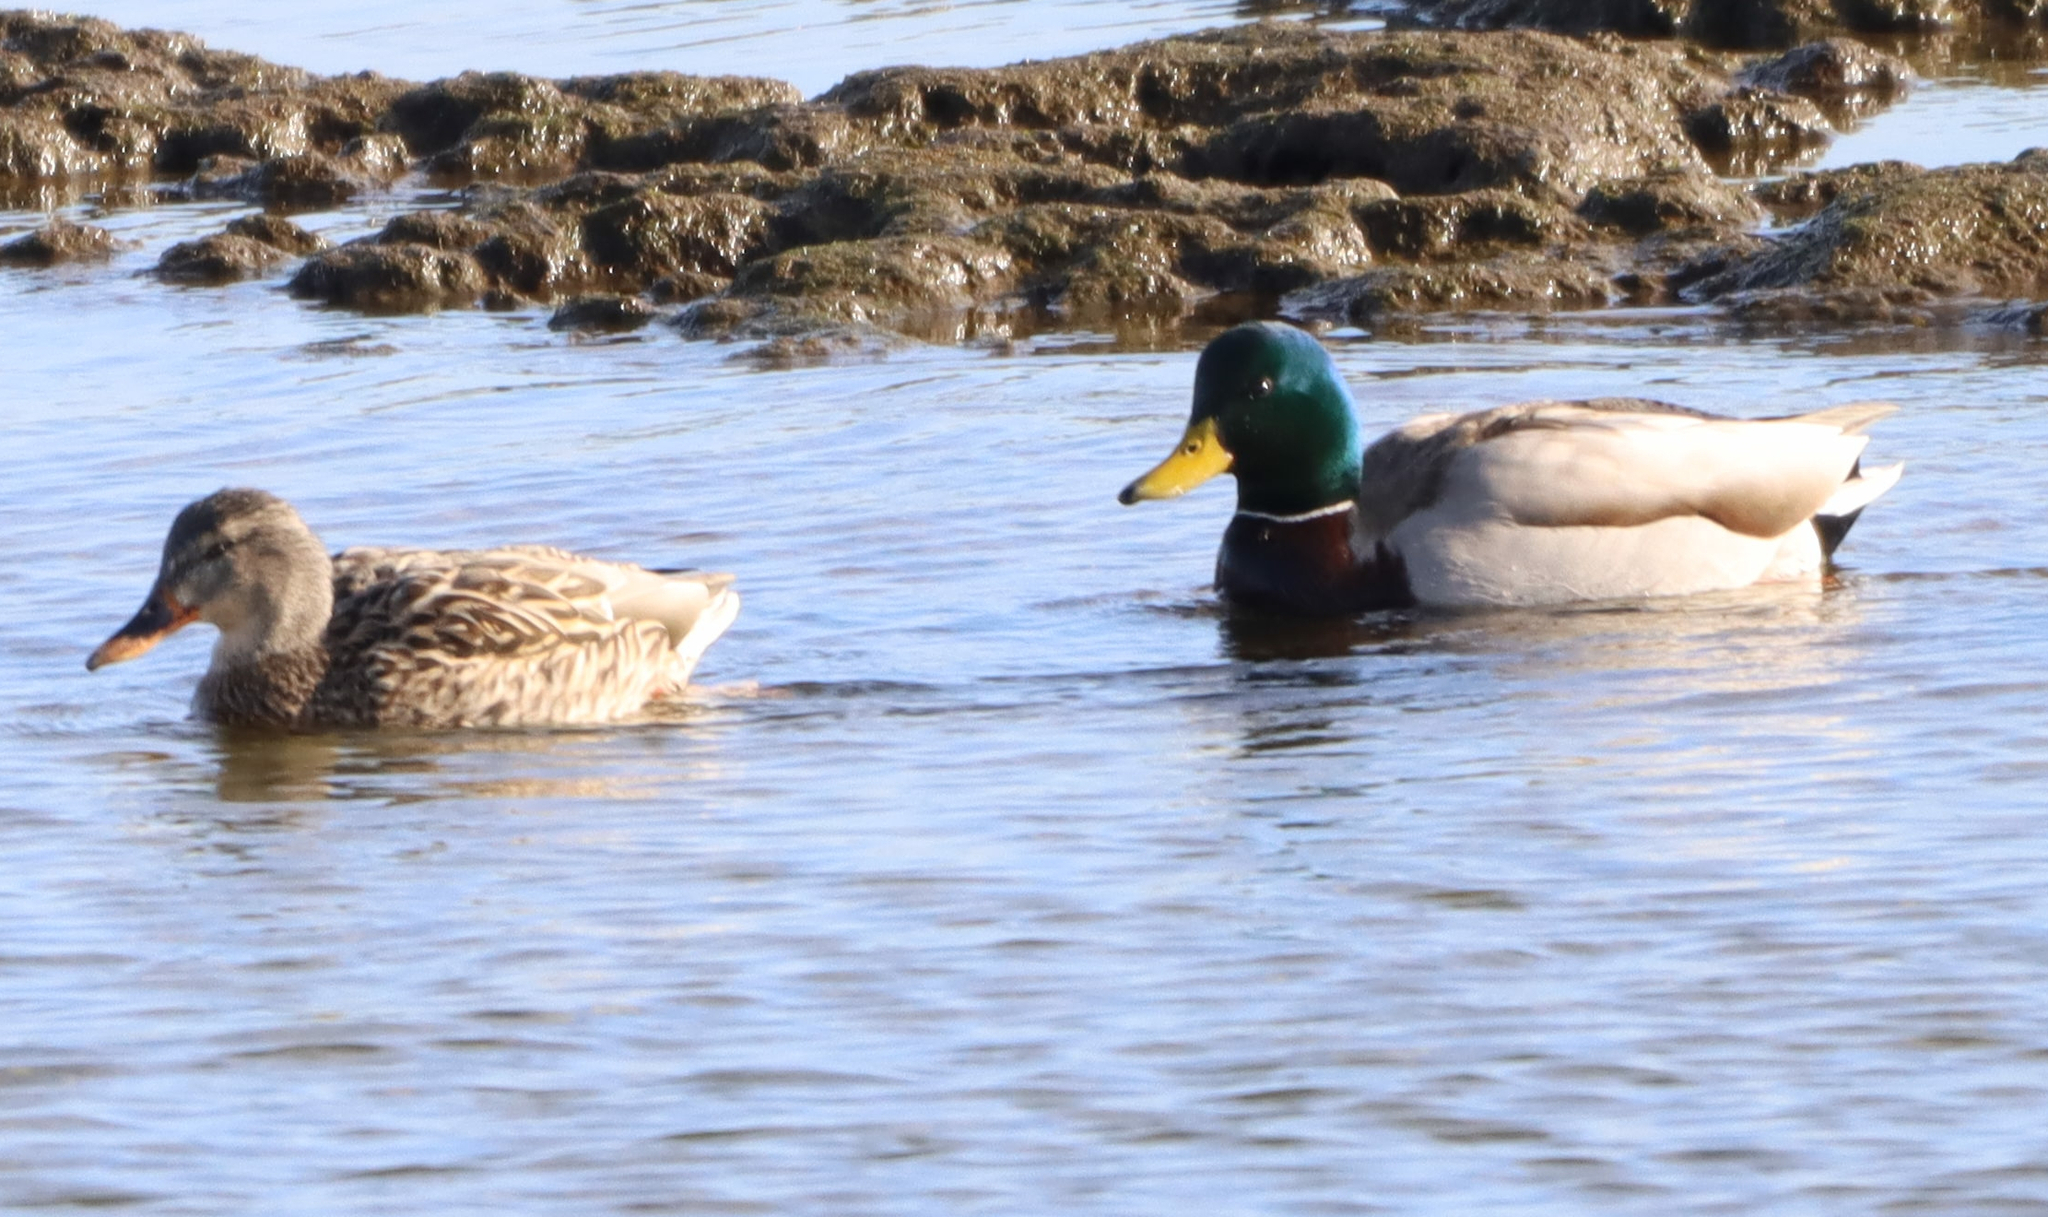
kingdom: Animalia
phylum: Chordata
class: Aves
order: Anseriformes
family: Anatidae
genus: Anas
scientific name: Anas platyrhynchos
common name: Mallard
